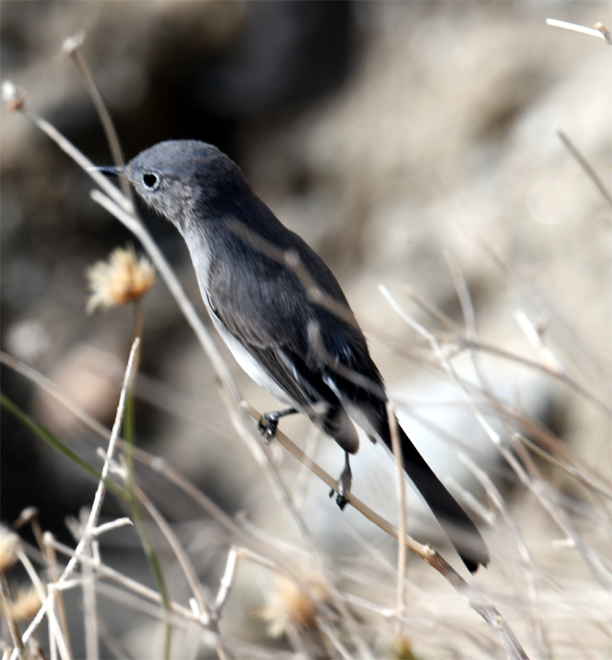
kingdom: Animalia
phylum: Chordata
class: Aves
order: Passeriformes
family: Polioptilidae
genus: Polioptila
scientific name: Polioptila melanura
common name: Black-tailed gnatcatcher
